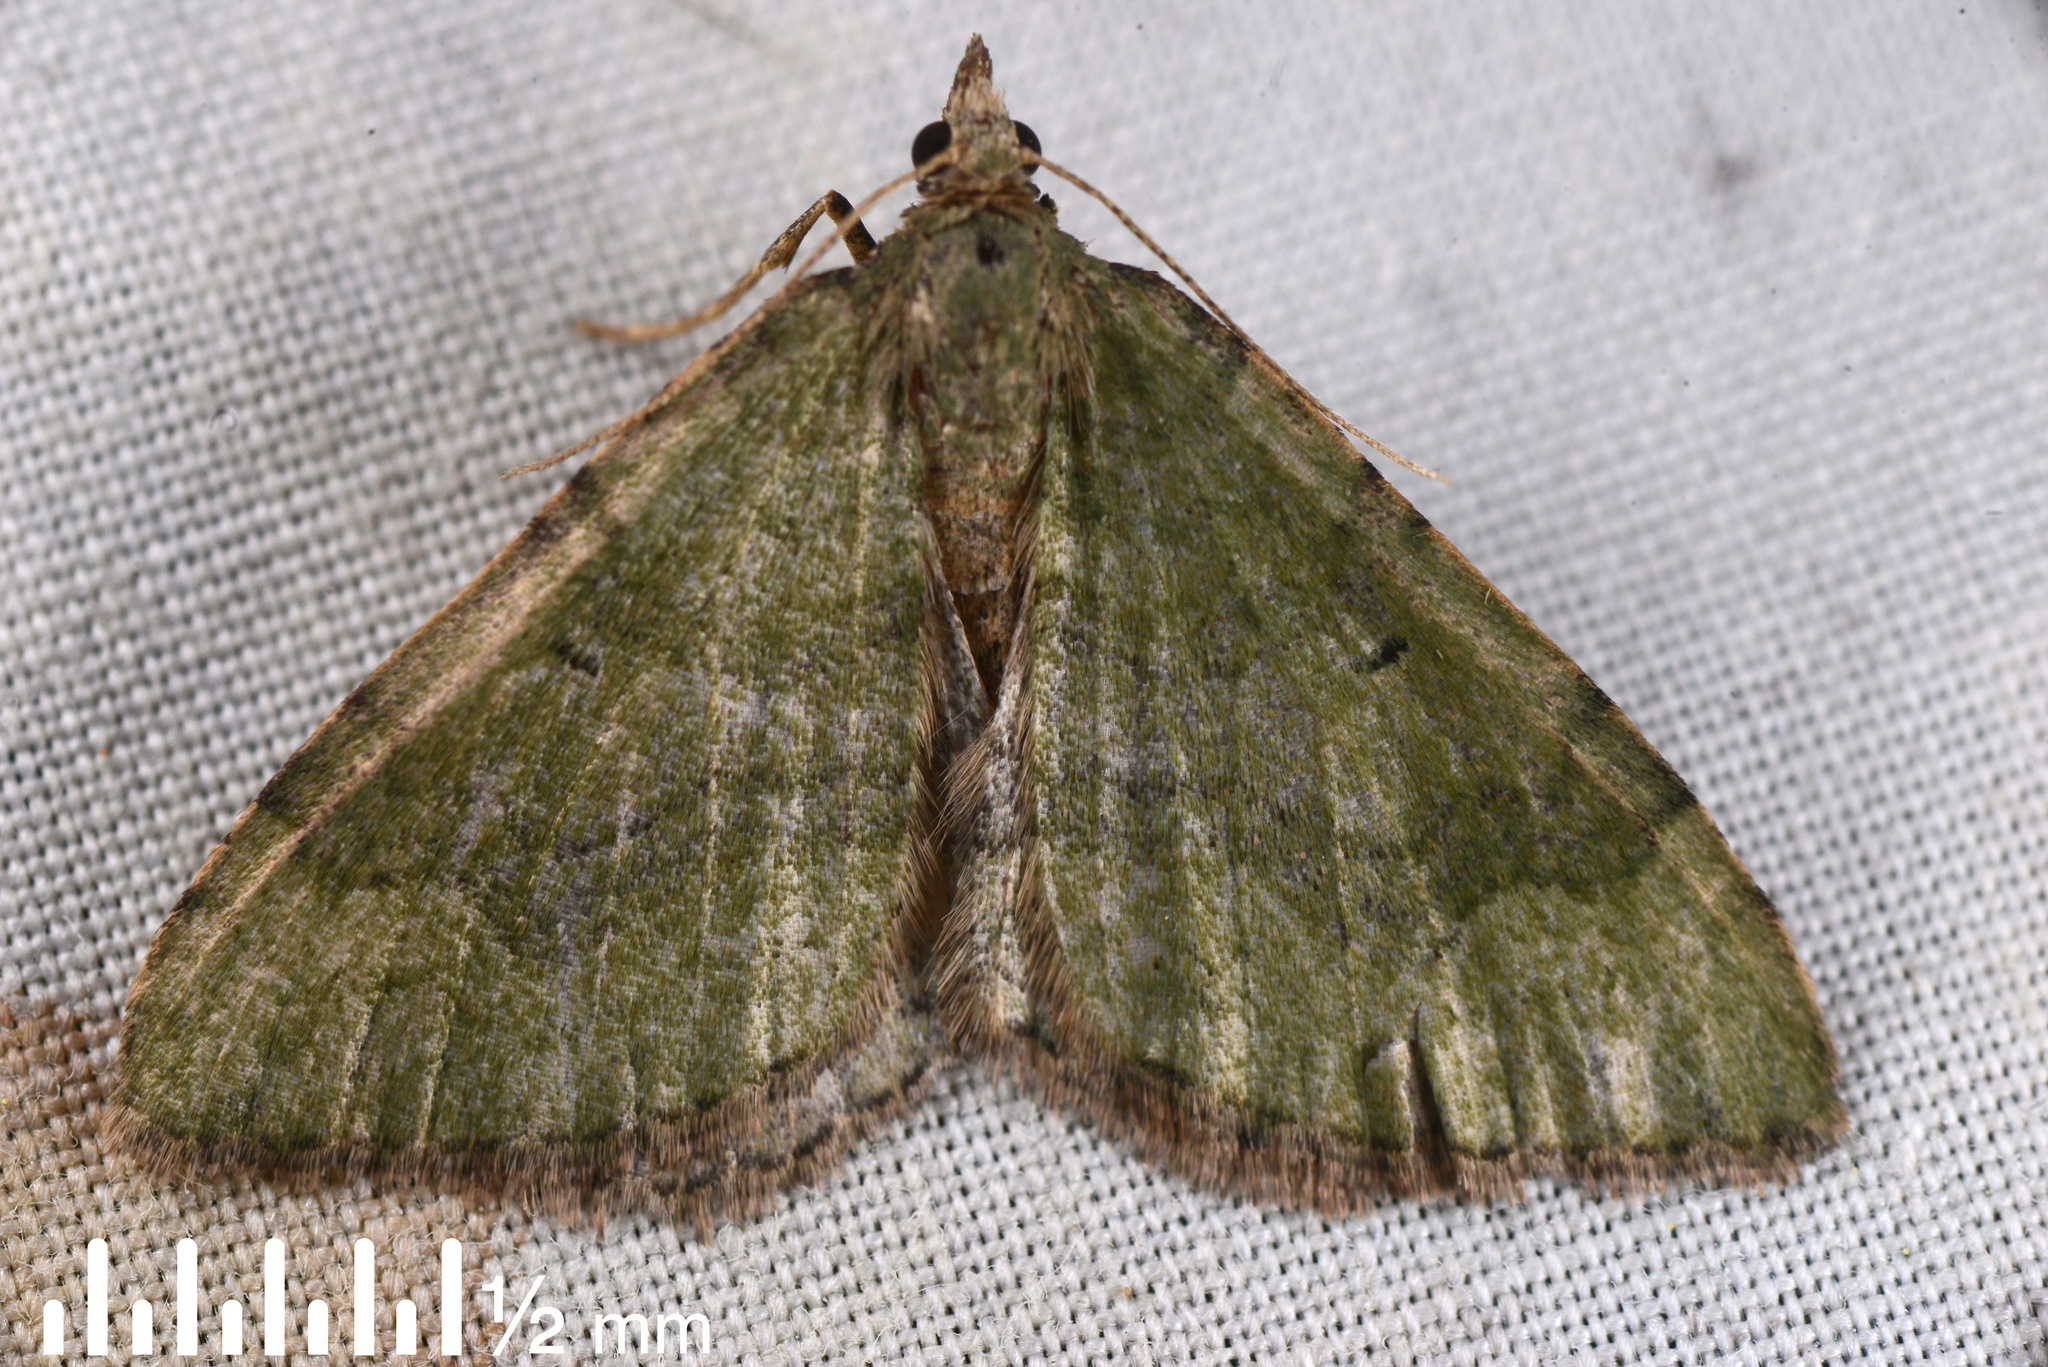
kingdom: Animalia
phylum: Arthropoda
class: Insecta
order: Lepidoptera
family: Geometridae
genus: Epyaxa
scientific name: Epyaxa rosearia
